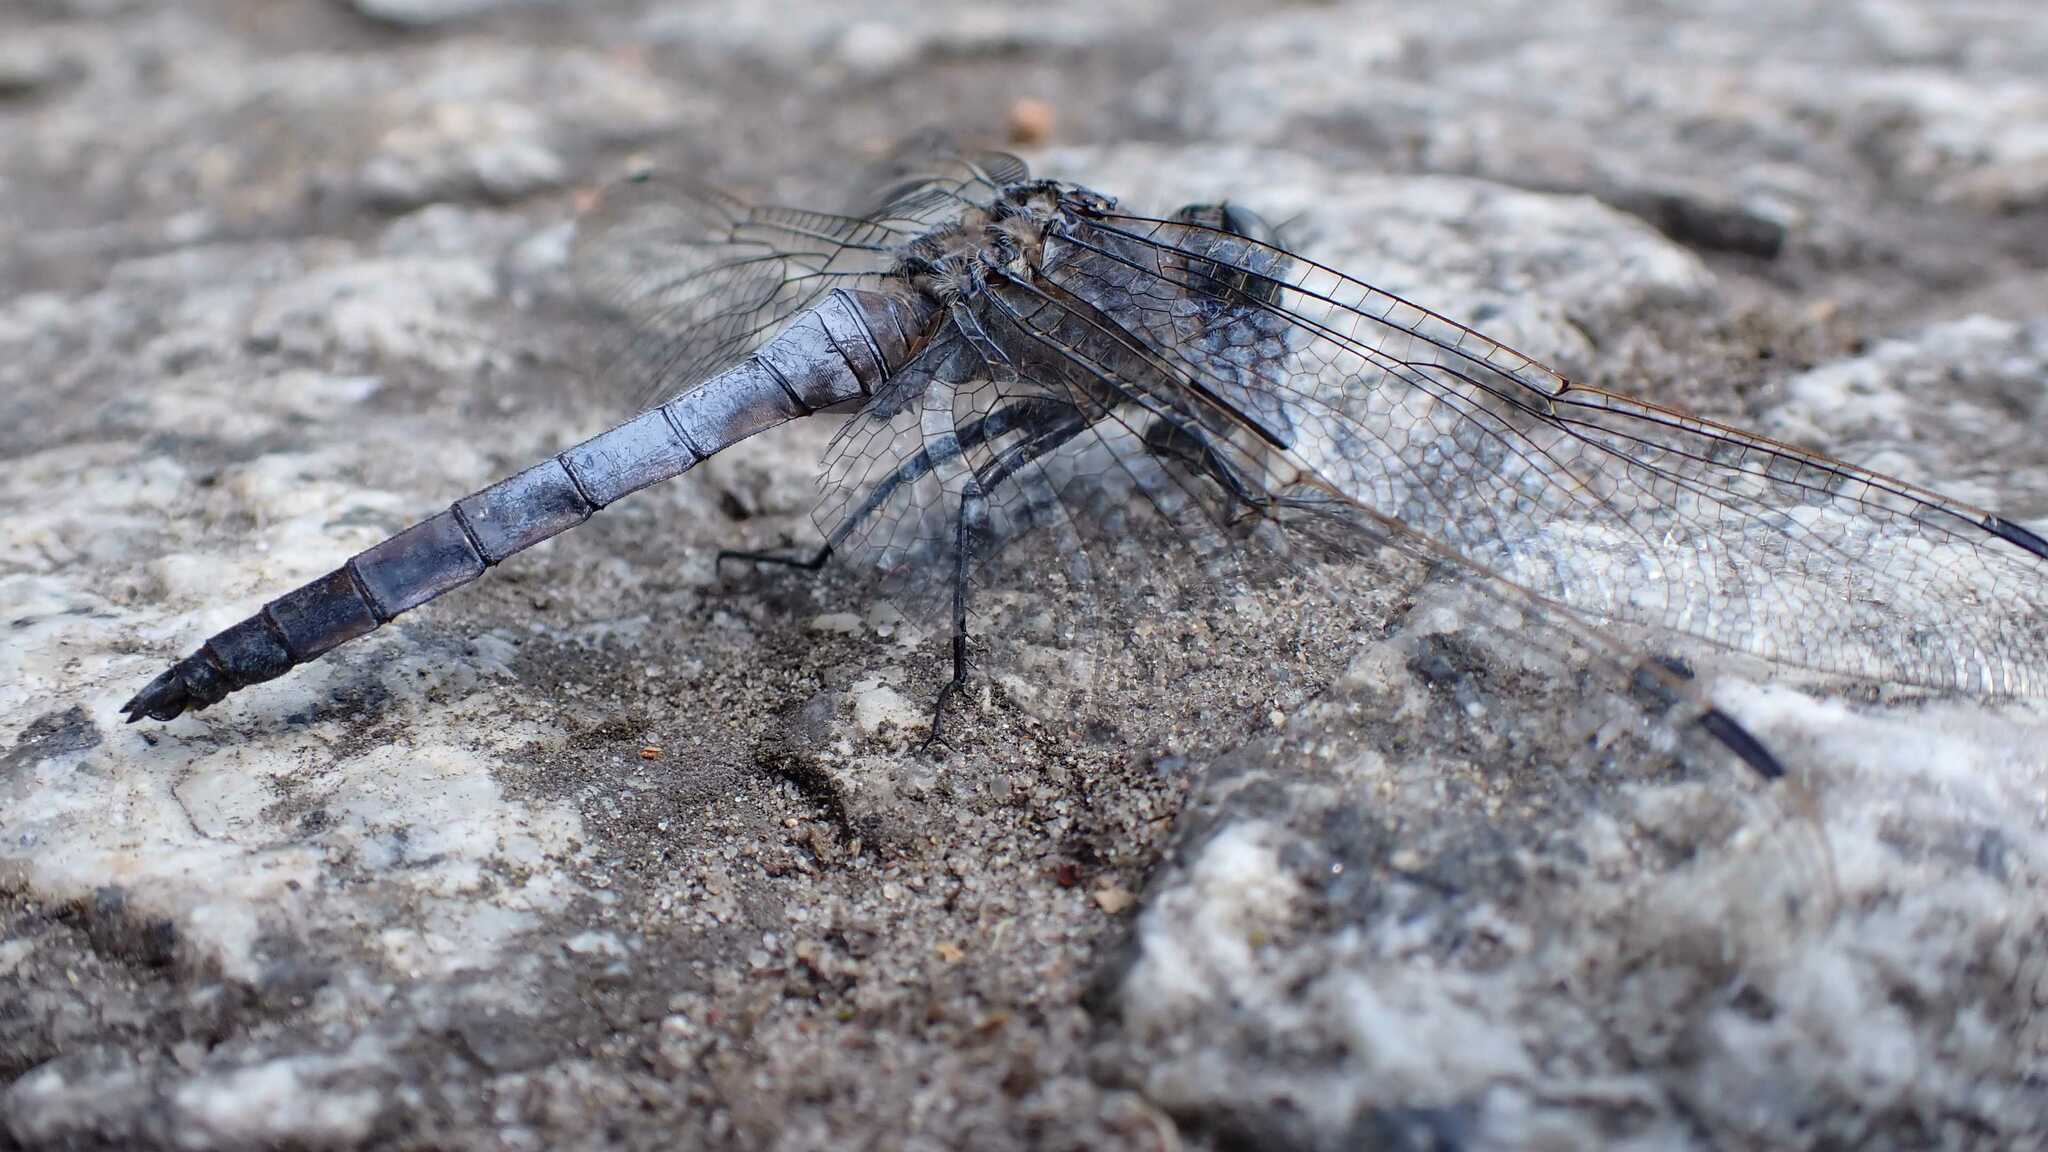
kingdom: Animalia
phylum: Arthropoda
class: Insecta
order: Odonata
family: Libellulidae
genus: Orthetrum
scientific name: Orthetrum cancellatum
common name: Black-tailed skimmer
